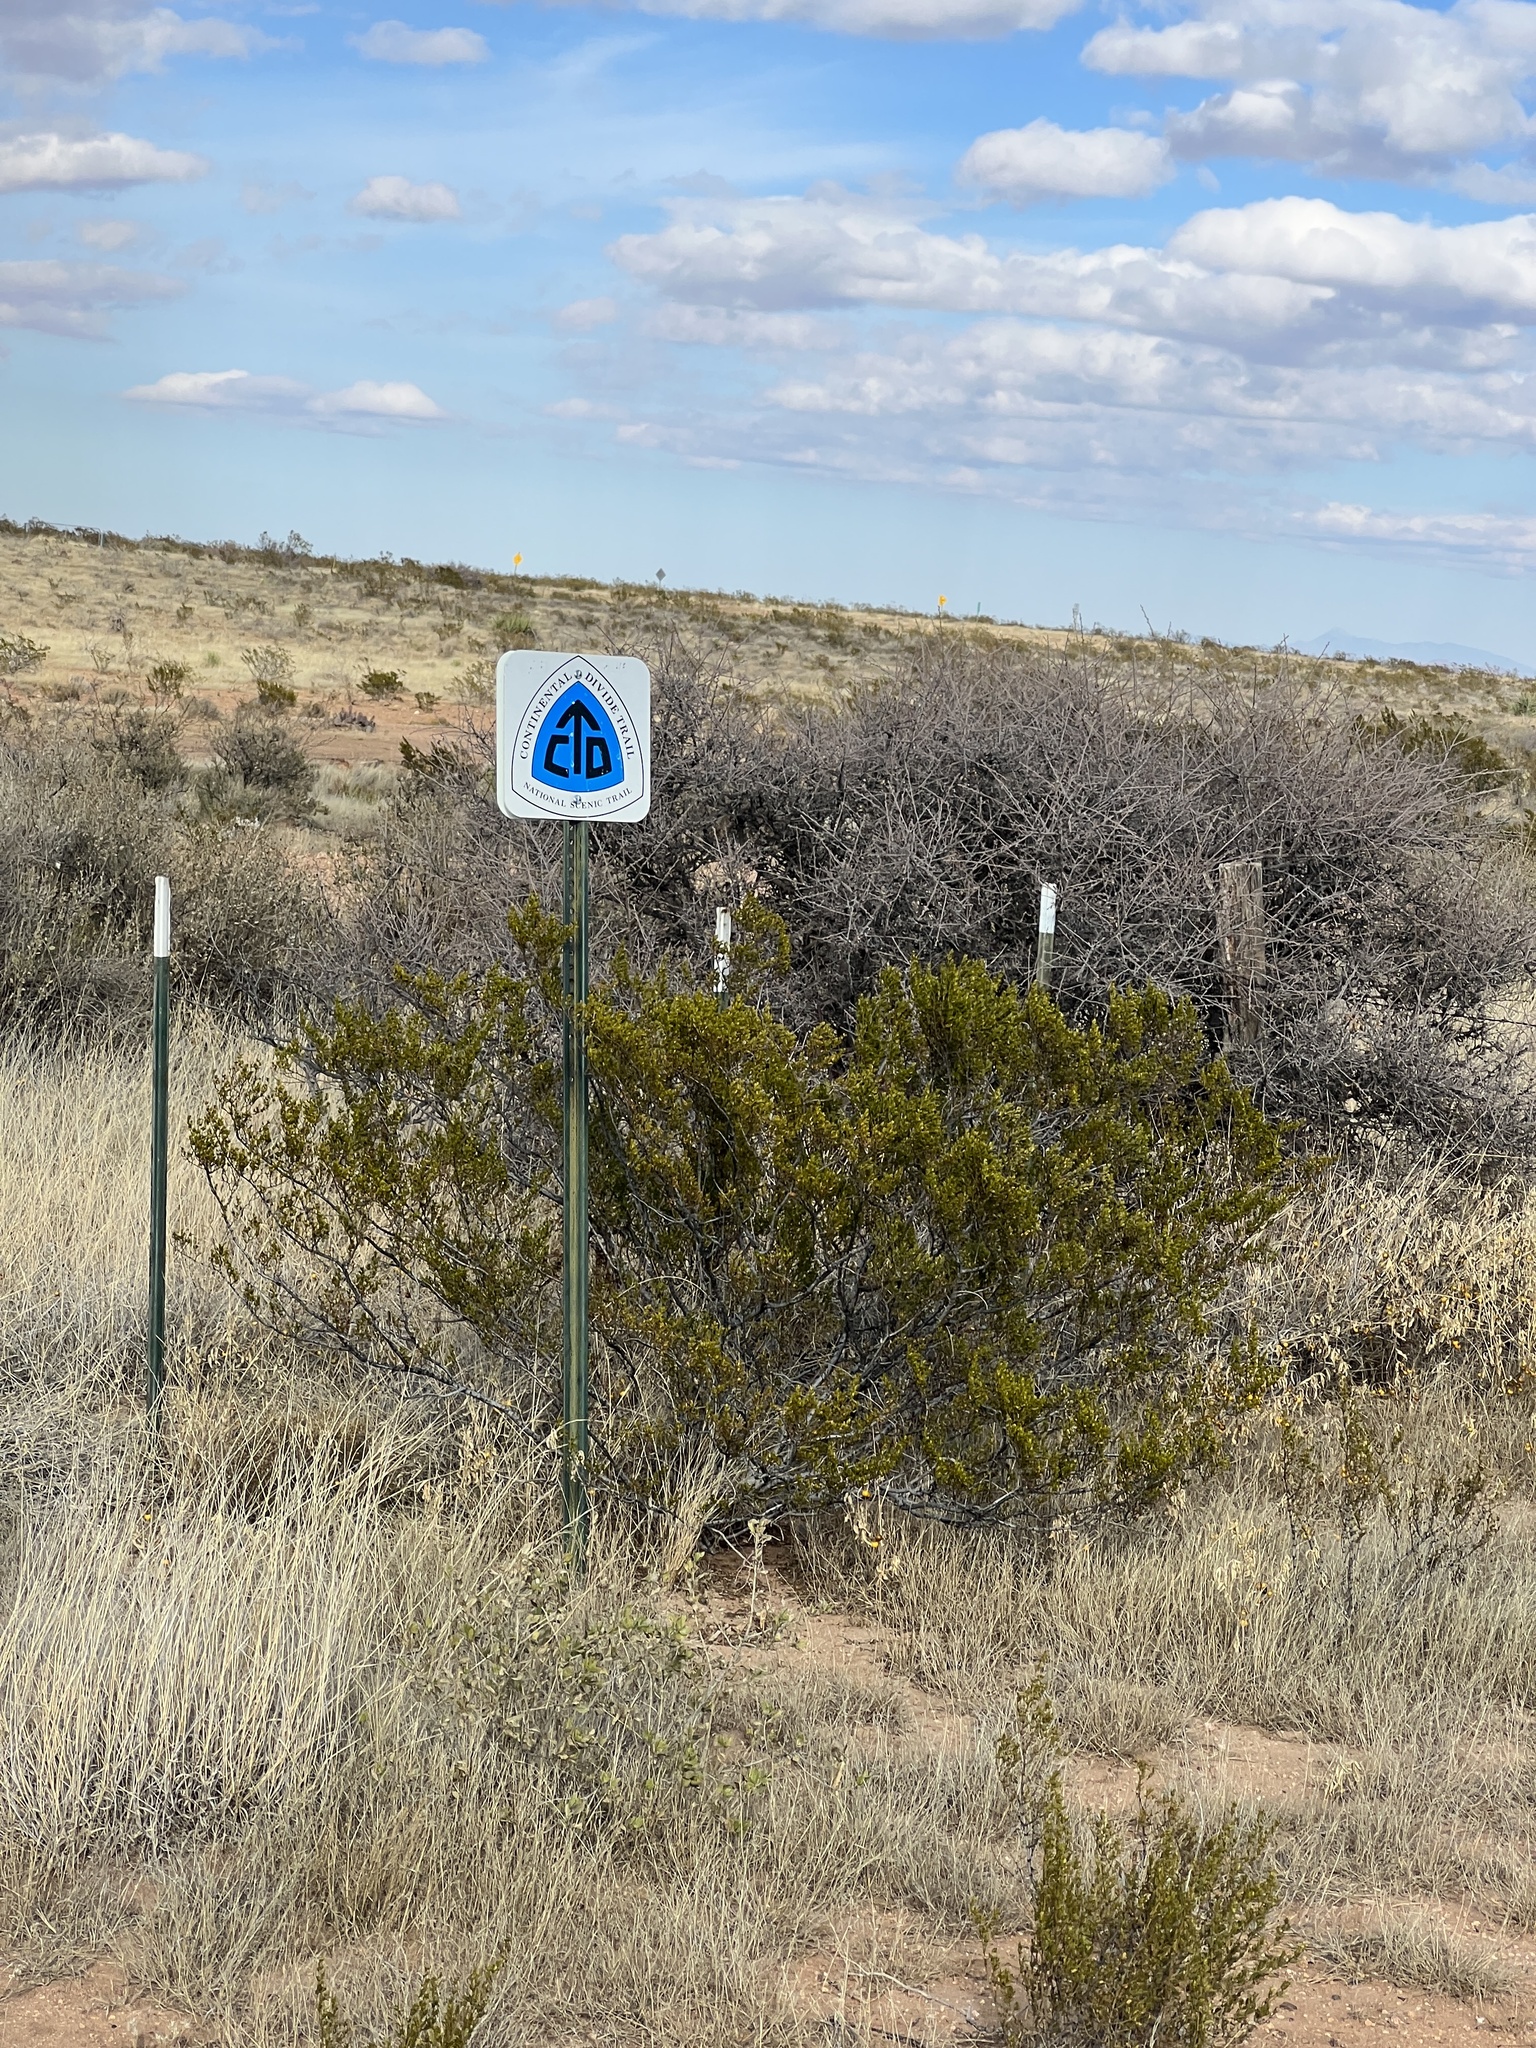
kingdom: Plantae
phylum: Tracheophyta
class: Magnoliopsida
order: Zygophyllales
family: Zygophyllaceae
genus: Larrea
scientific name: Larrea tridentata
